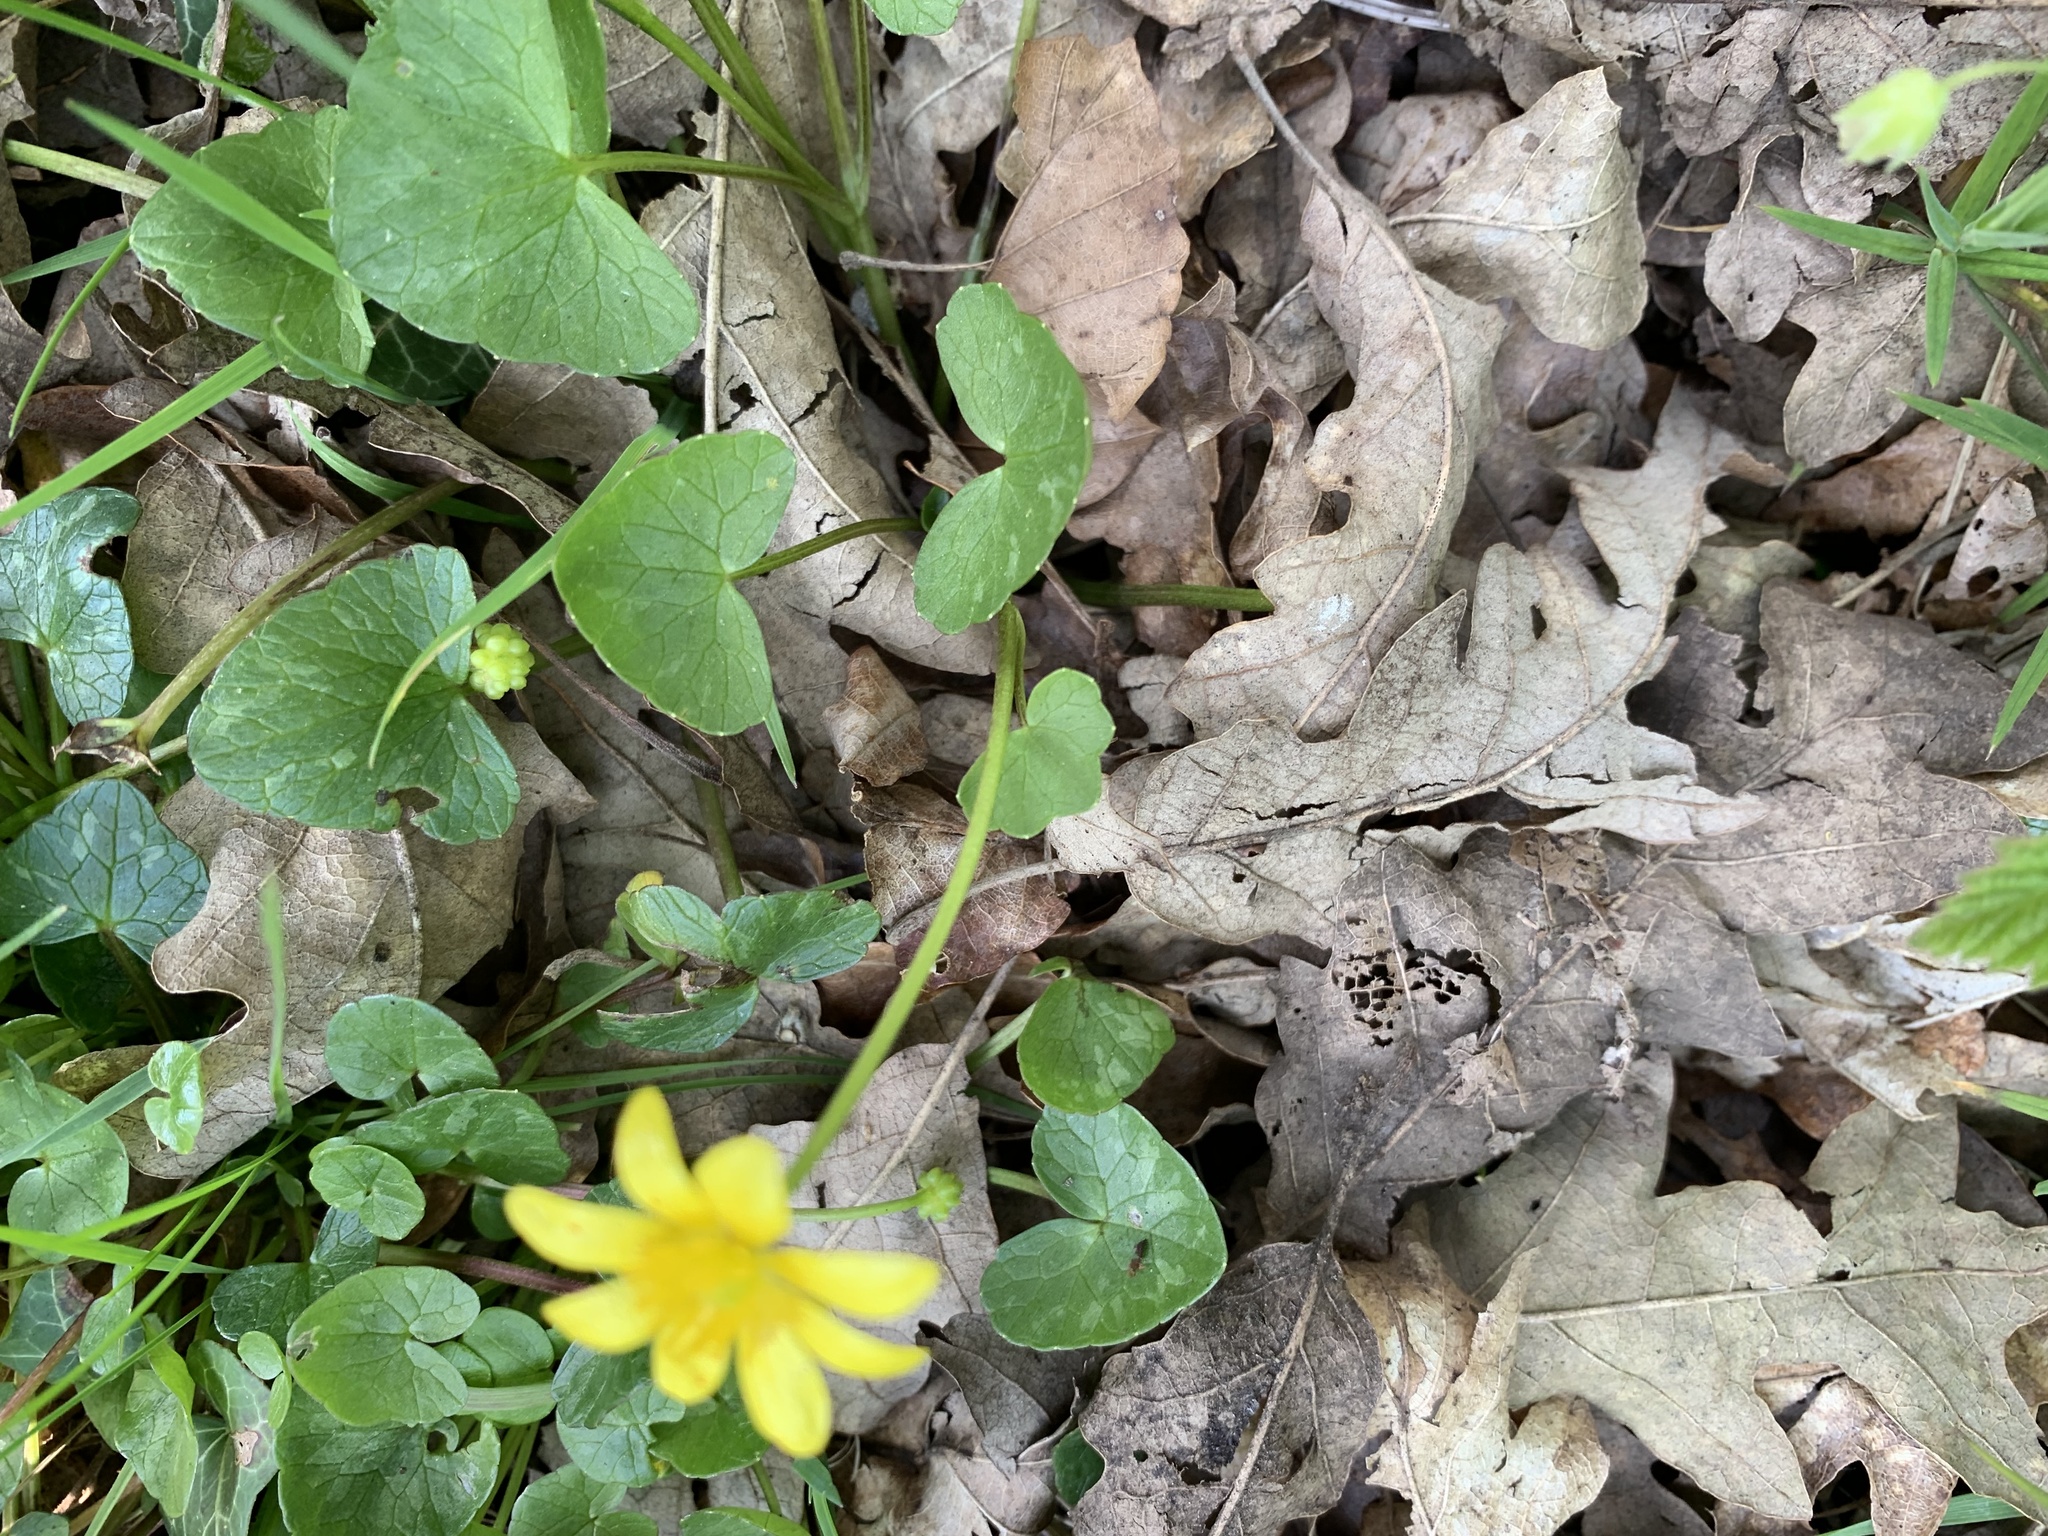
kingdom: Plantae
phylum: Tracheophyta
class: Magnoliopsida
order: Ranunculales
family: Ranunculaceae
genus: Ficaria
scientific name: Ficaria verna
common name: Lesser celandine
